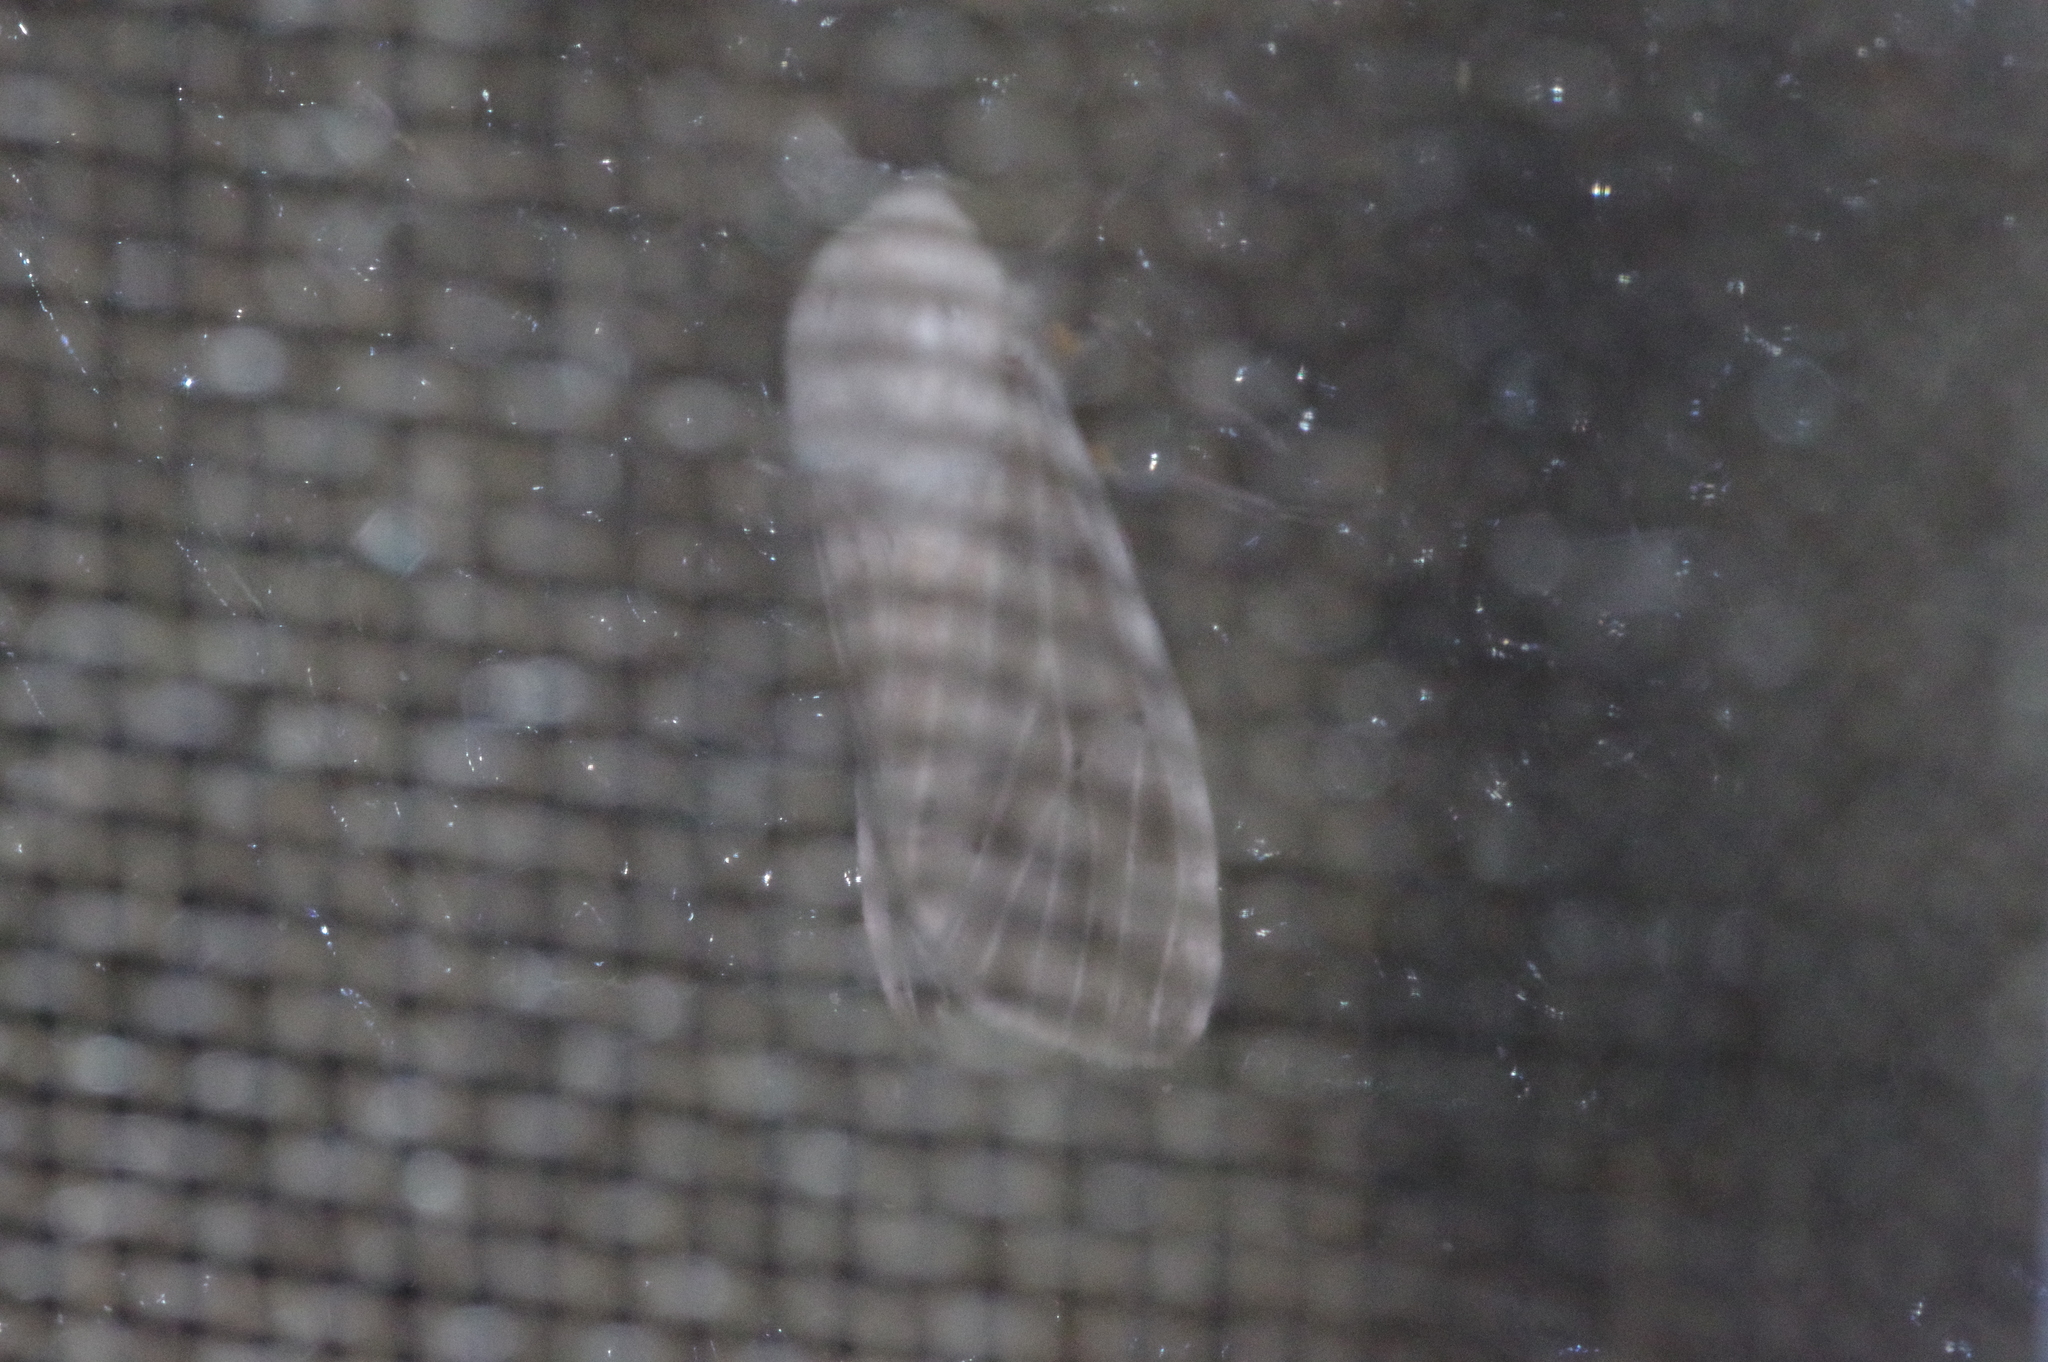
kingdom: Animalia
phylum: Arthropoda
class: Insecta
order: Lepidoptera
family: Erebidae
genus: Creatonotos
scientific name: Creatonotos transiens
